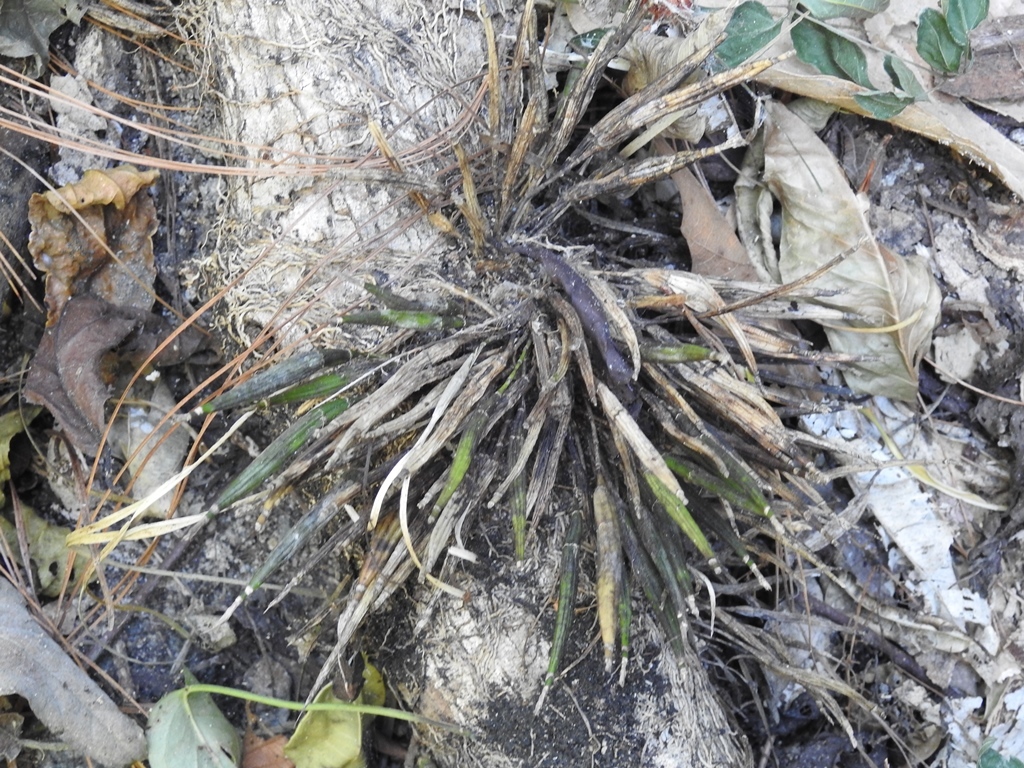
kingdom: Plantae
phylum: Tracheophyta
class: Liliopsida
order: Asparagales
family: Orchidaceae
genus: Scaphyglottis
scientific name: Scaphyglottis fasciculata
